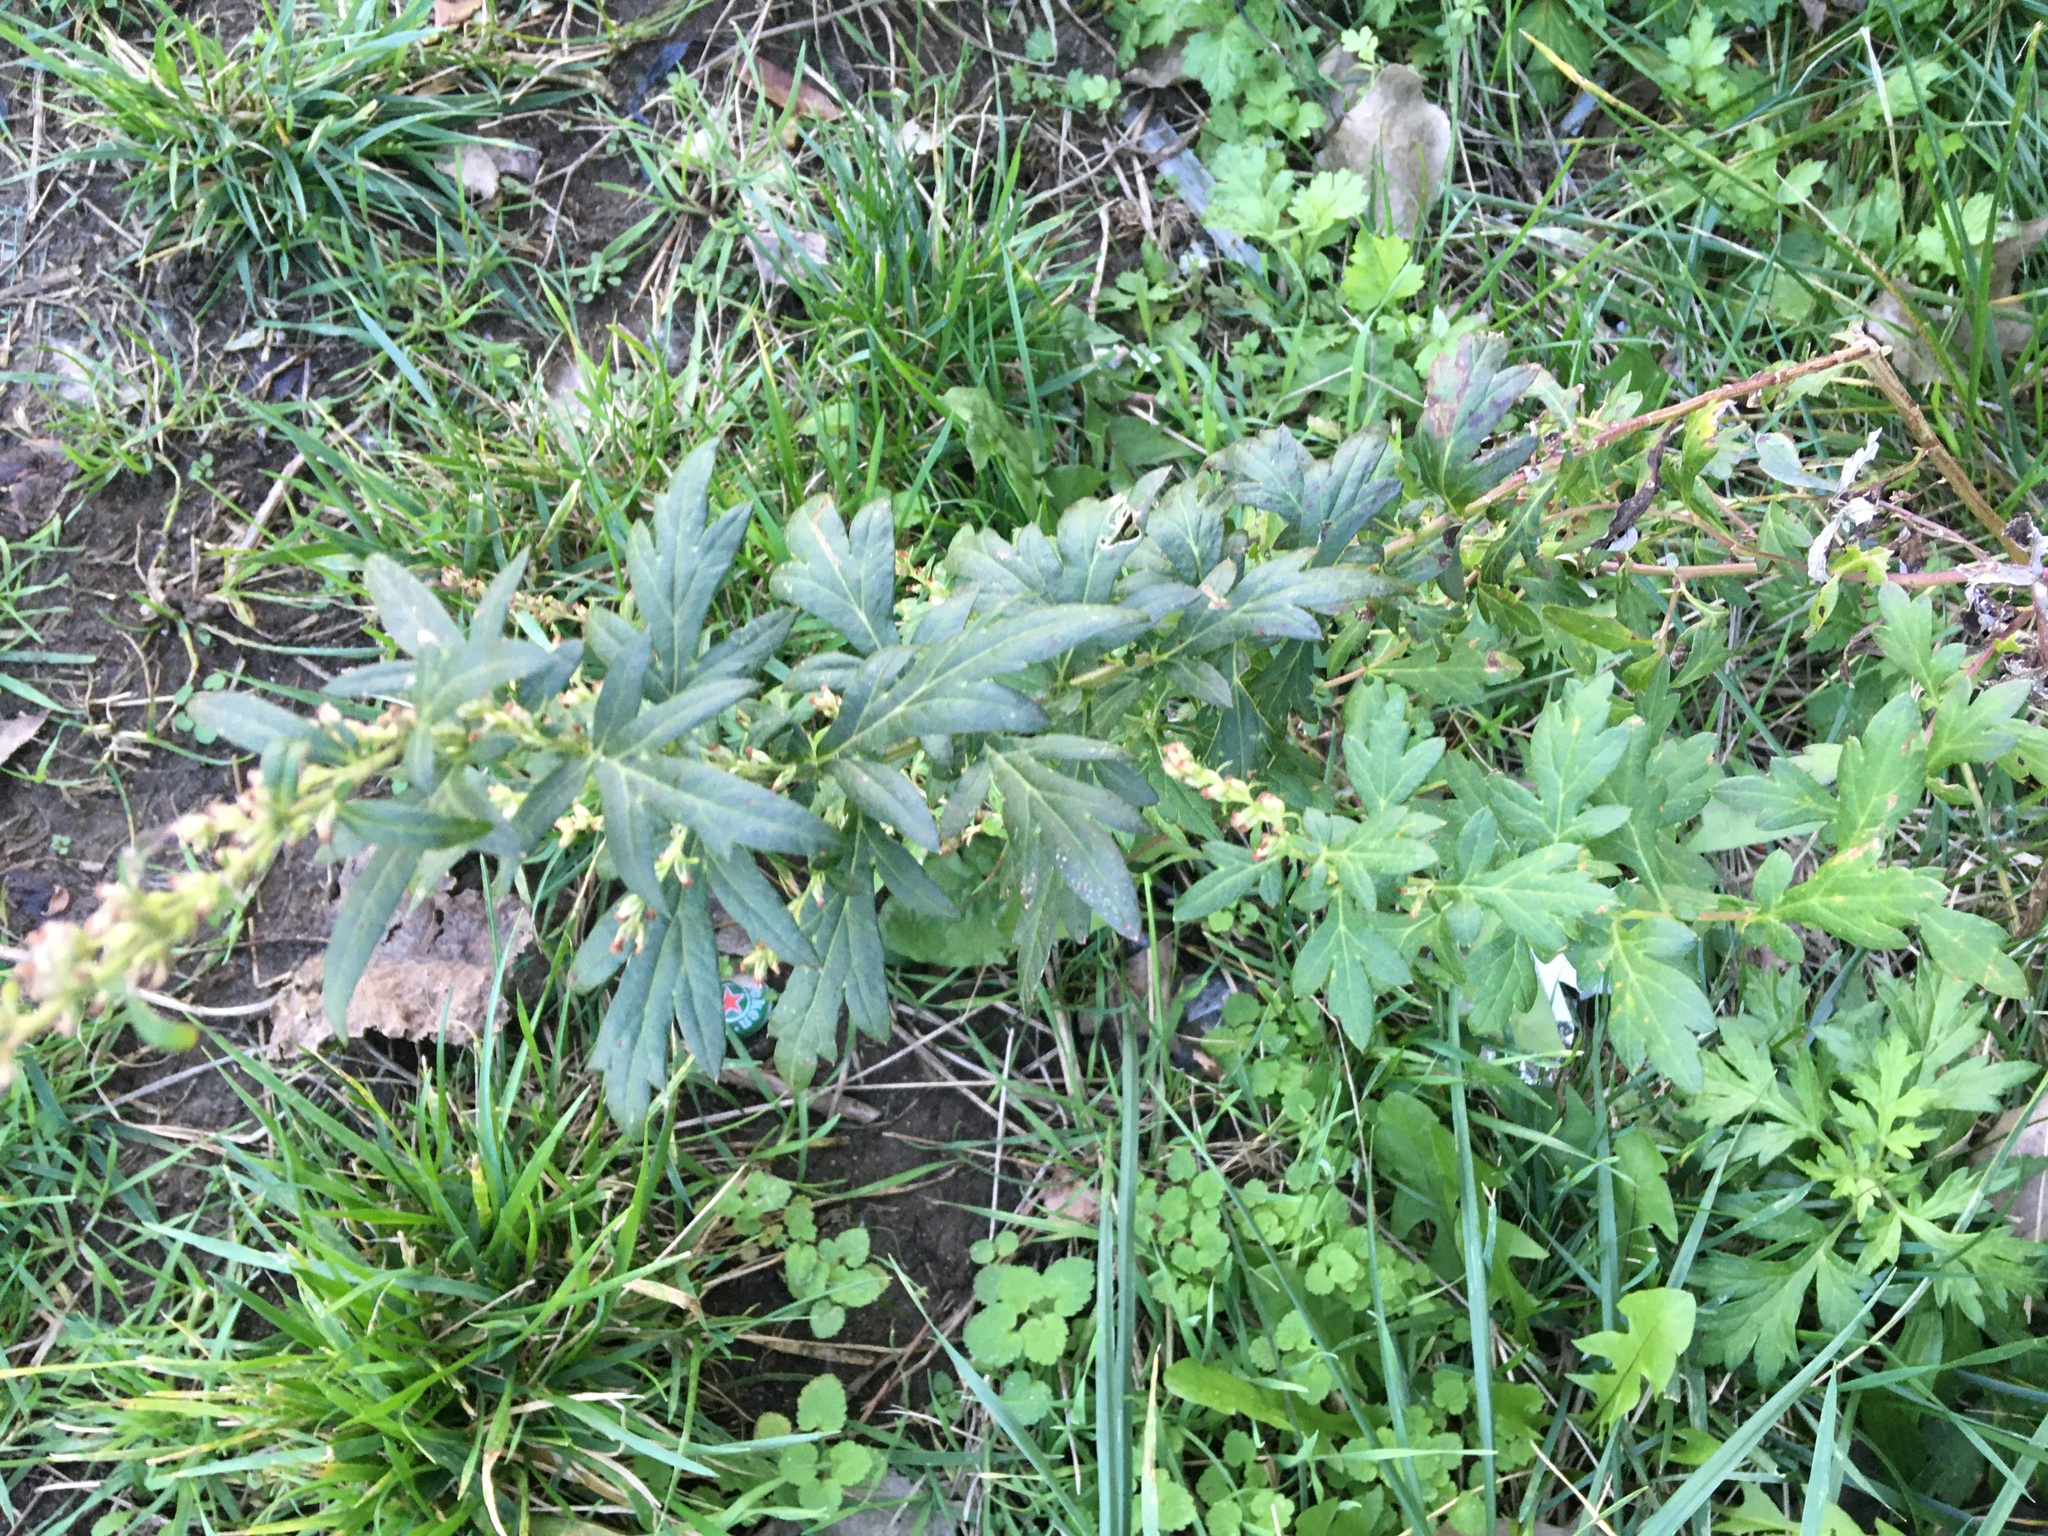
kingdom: Plantae
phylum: Tracheophyta
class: Magnoliopsida
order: Asterales
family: Asteraceae
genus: Artemisia
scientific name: Artemisia vulgaris
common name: Mugwort
